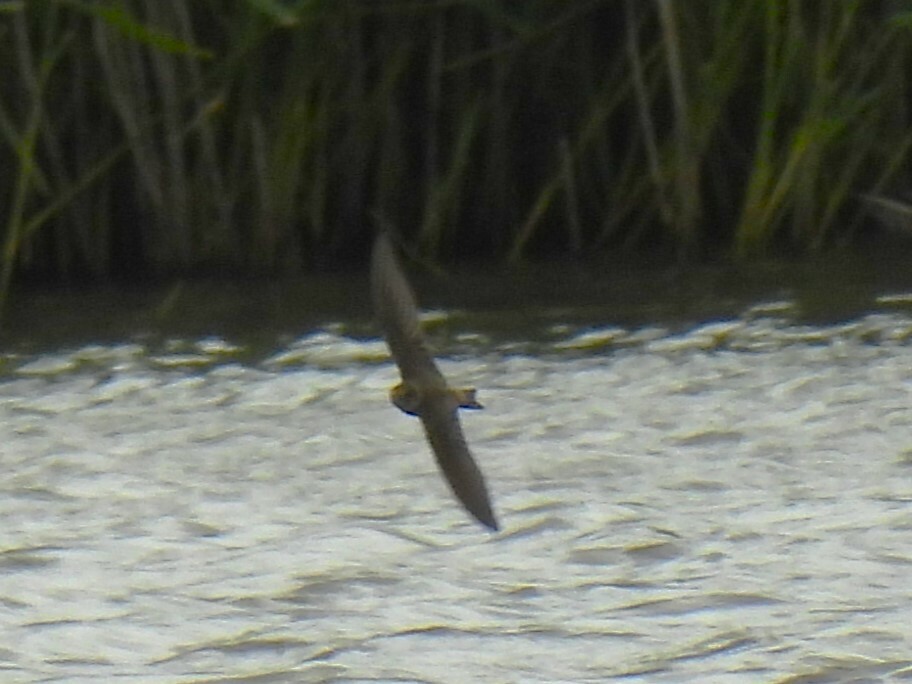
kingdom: Animalia
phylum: Chordata
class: Aves
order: Passeriformes
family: Hirundinidae
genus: Riparia
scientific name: Riparia riparia
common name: Sand martin
